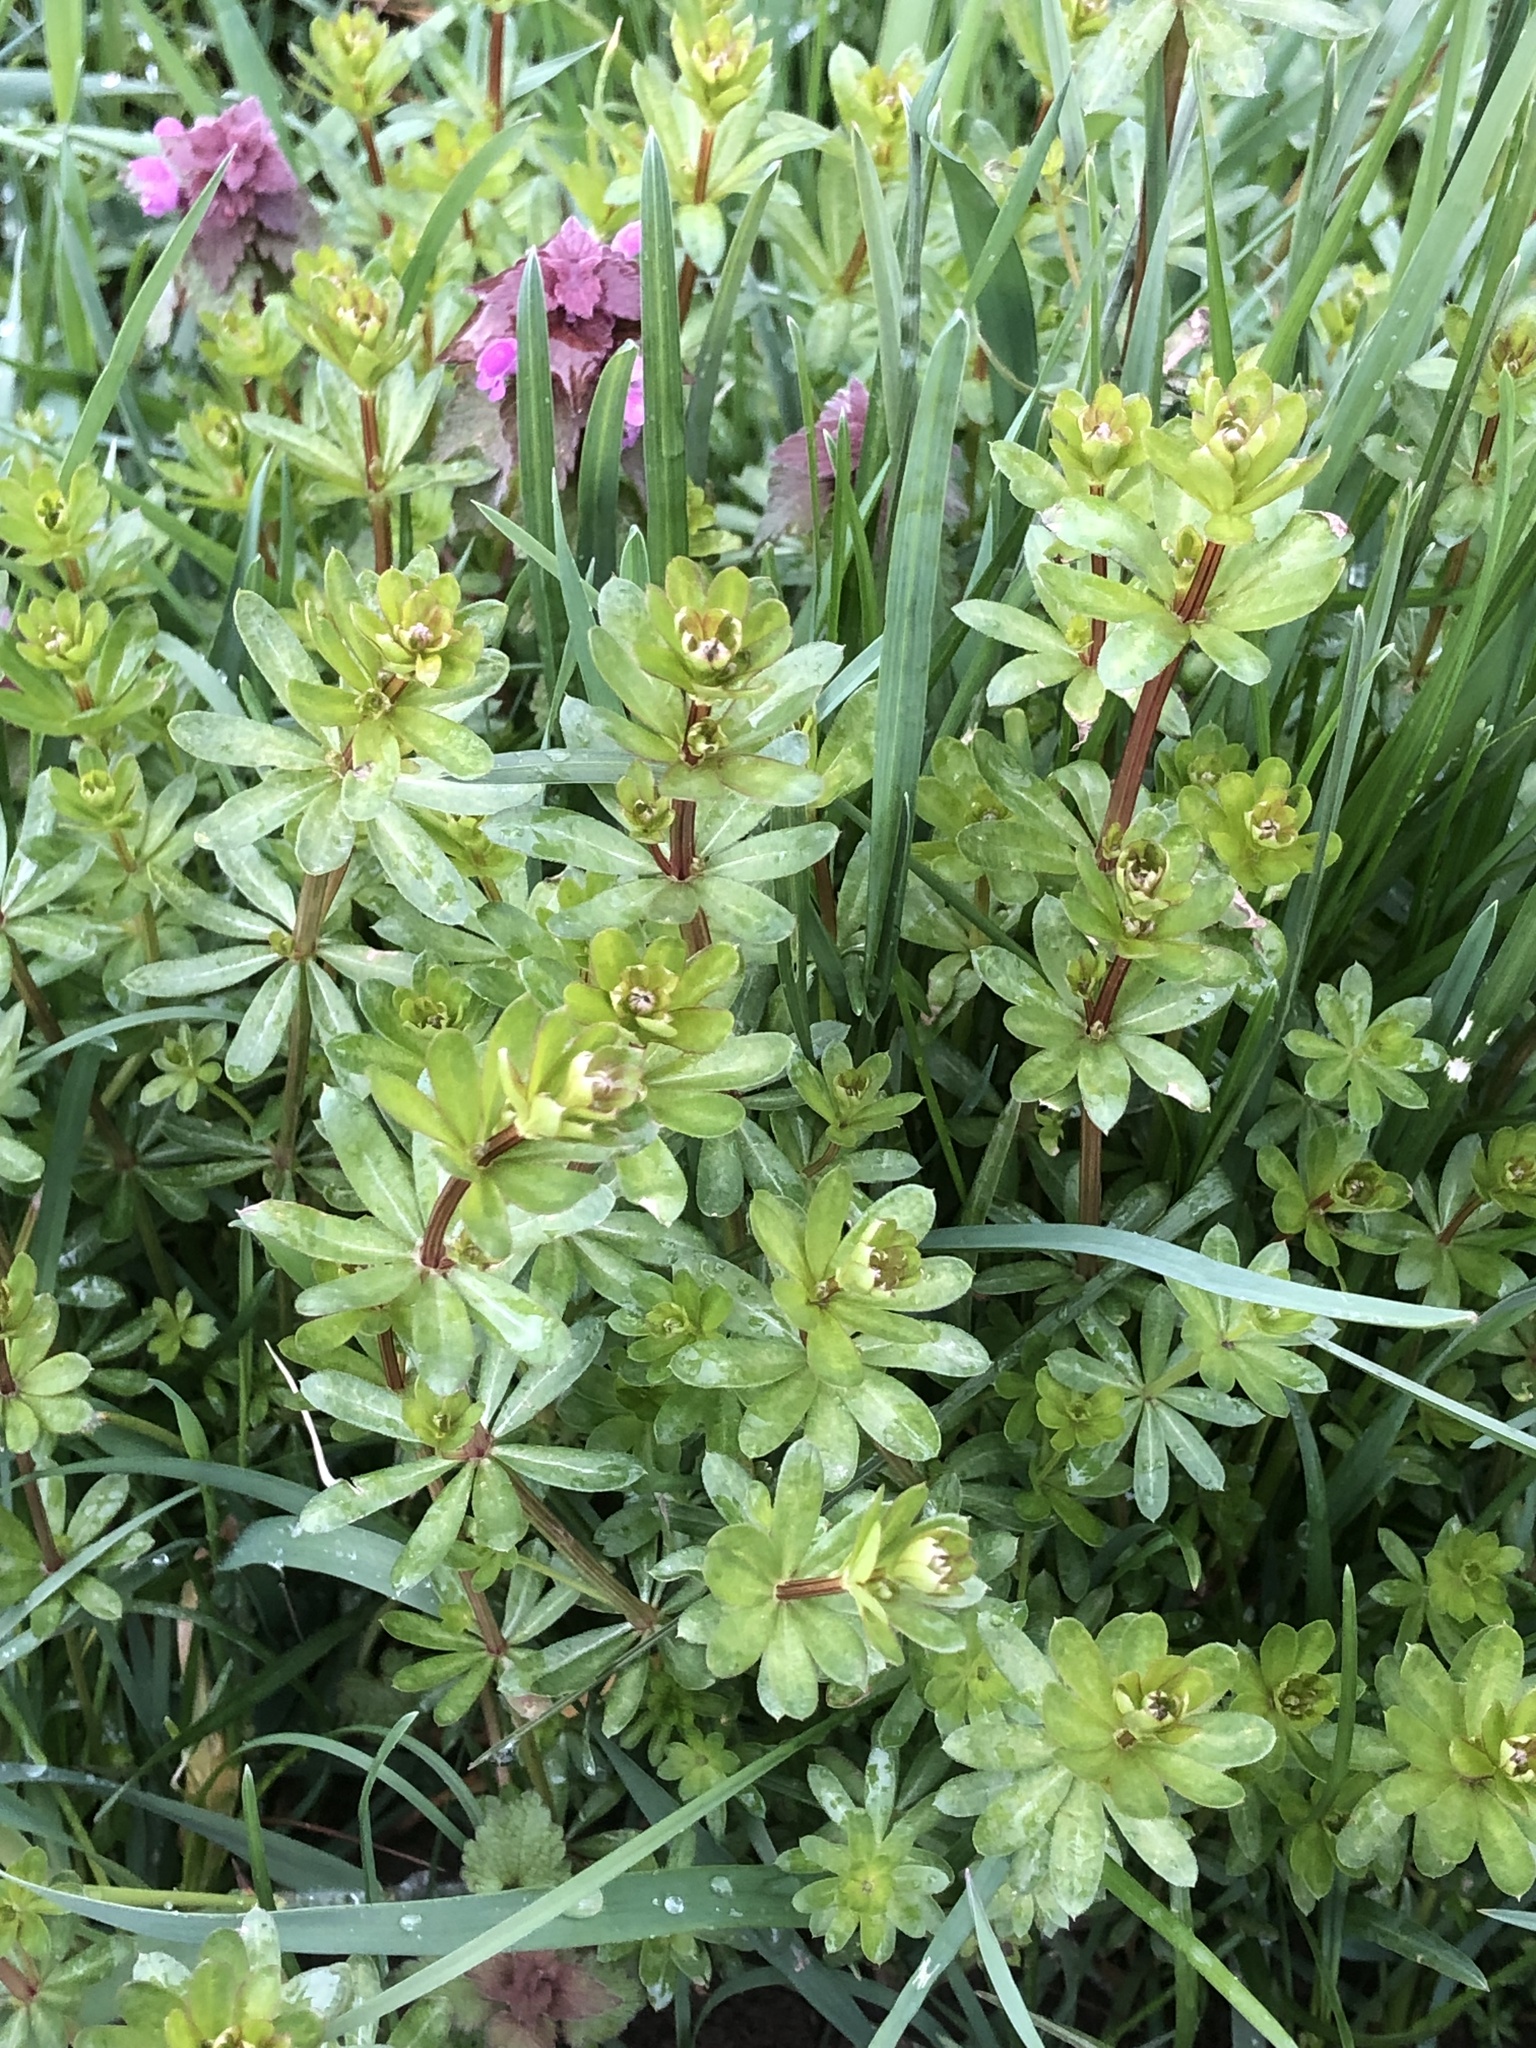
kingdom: Plantae
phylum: Tracheophyta
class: Magnoliopsida
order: Gentianales
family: Rubiaceae
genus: Galium
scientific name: Galium mollugo
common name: Hedge bedstraw
